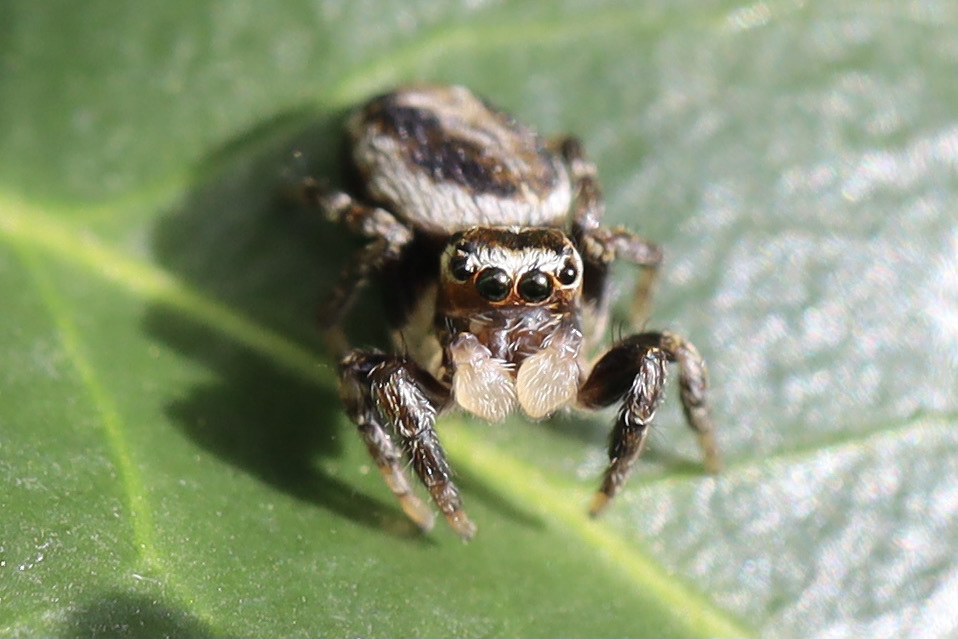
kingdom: Animalia
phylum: Arthropoda
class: Arachnida
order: Araneae
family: Salticidae
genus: Evarcha
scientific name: Evarcha proszynskii
